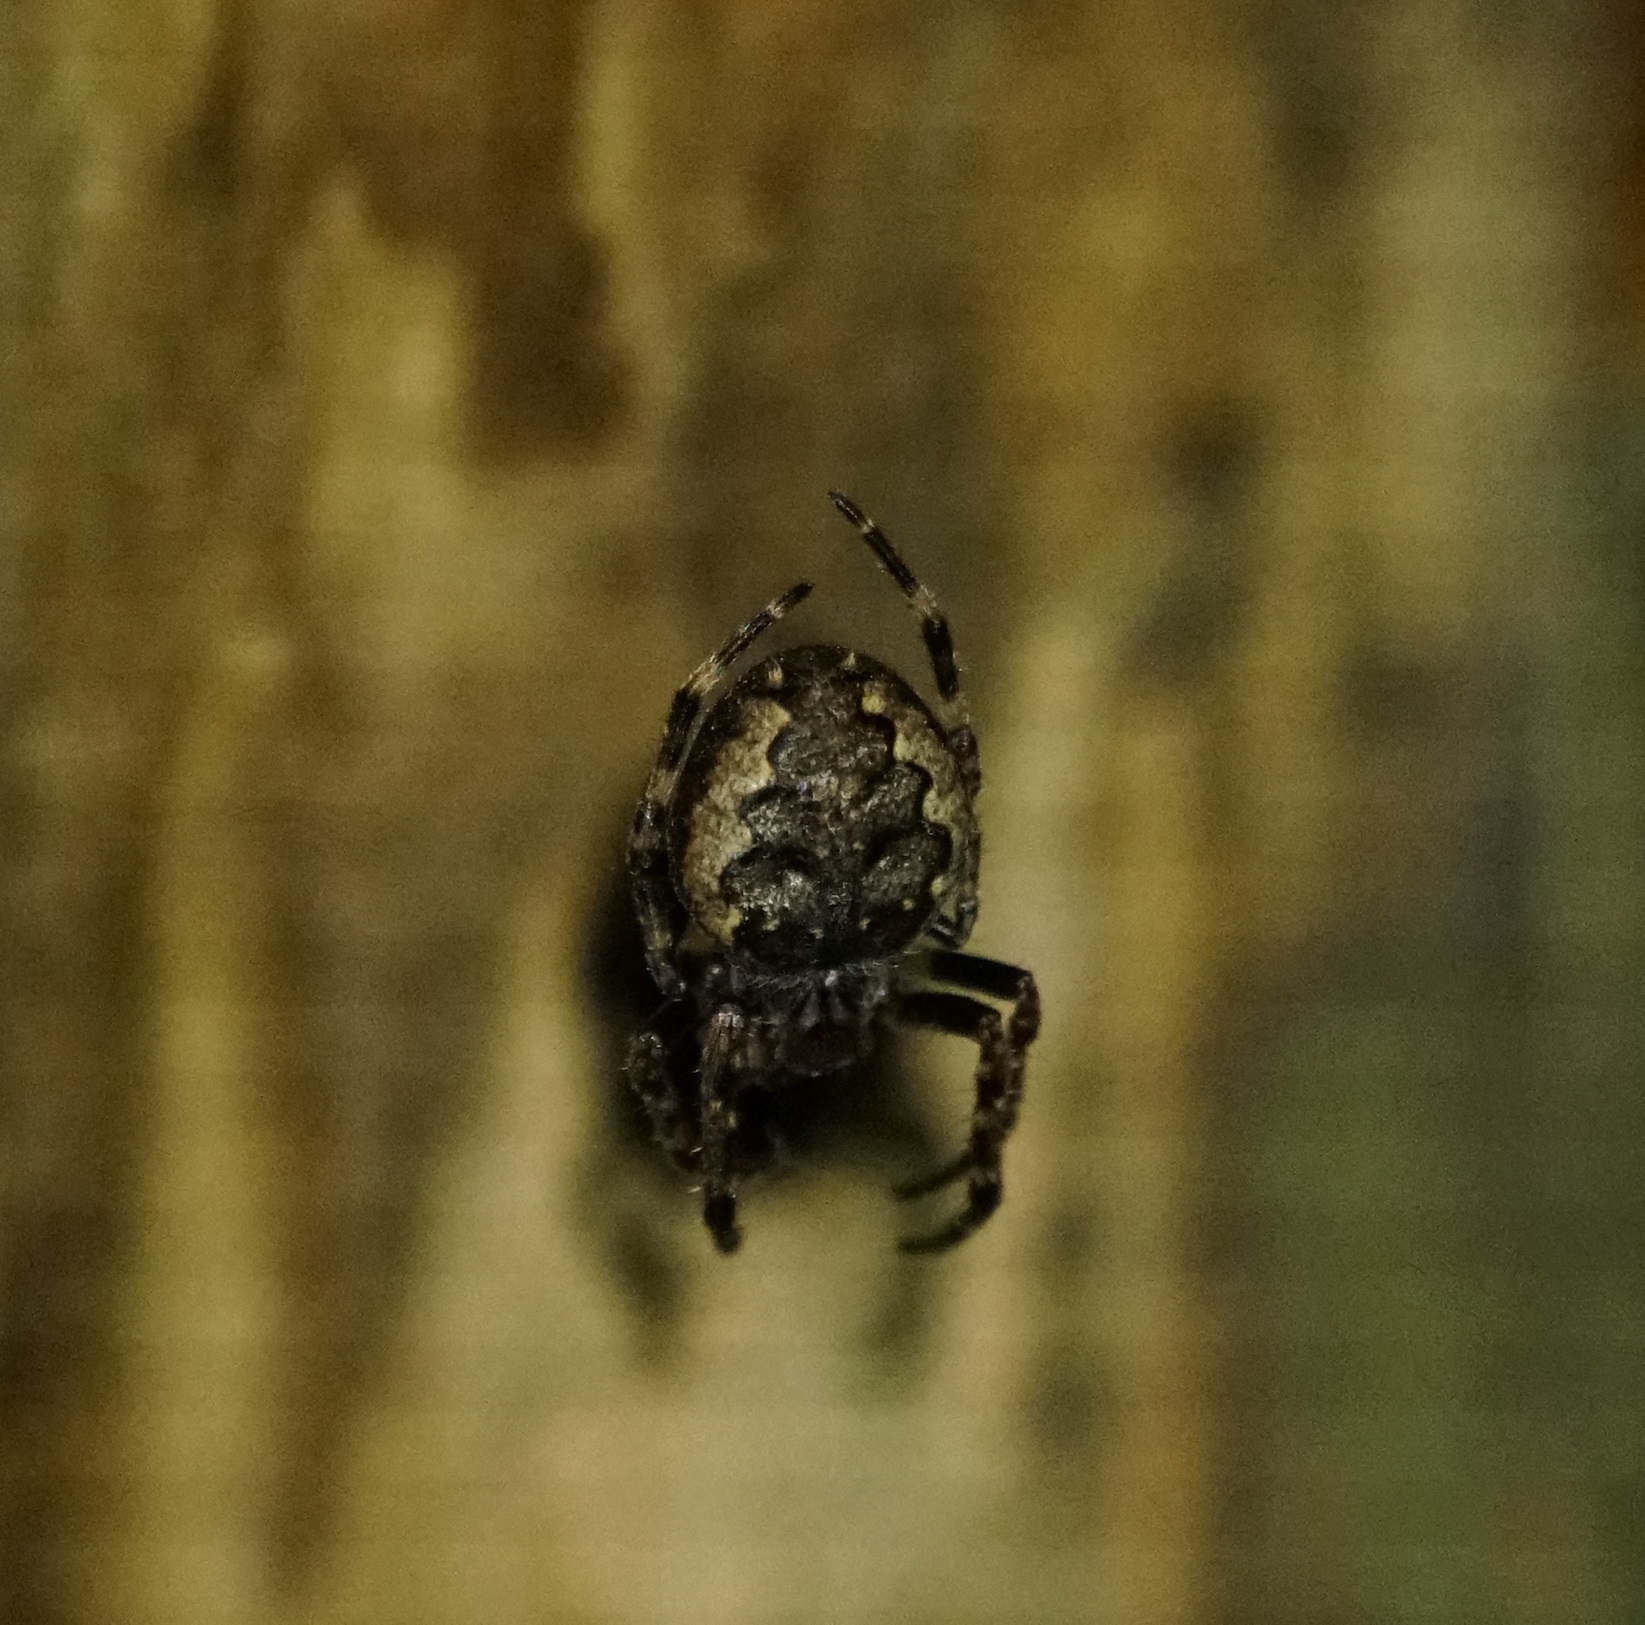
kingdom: Animalia
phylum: Arthropoda
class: Arachnida
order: Araneae
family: Araneidae
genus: Nuctenea
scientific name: Nuctenea umbratica
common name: Toad spider
